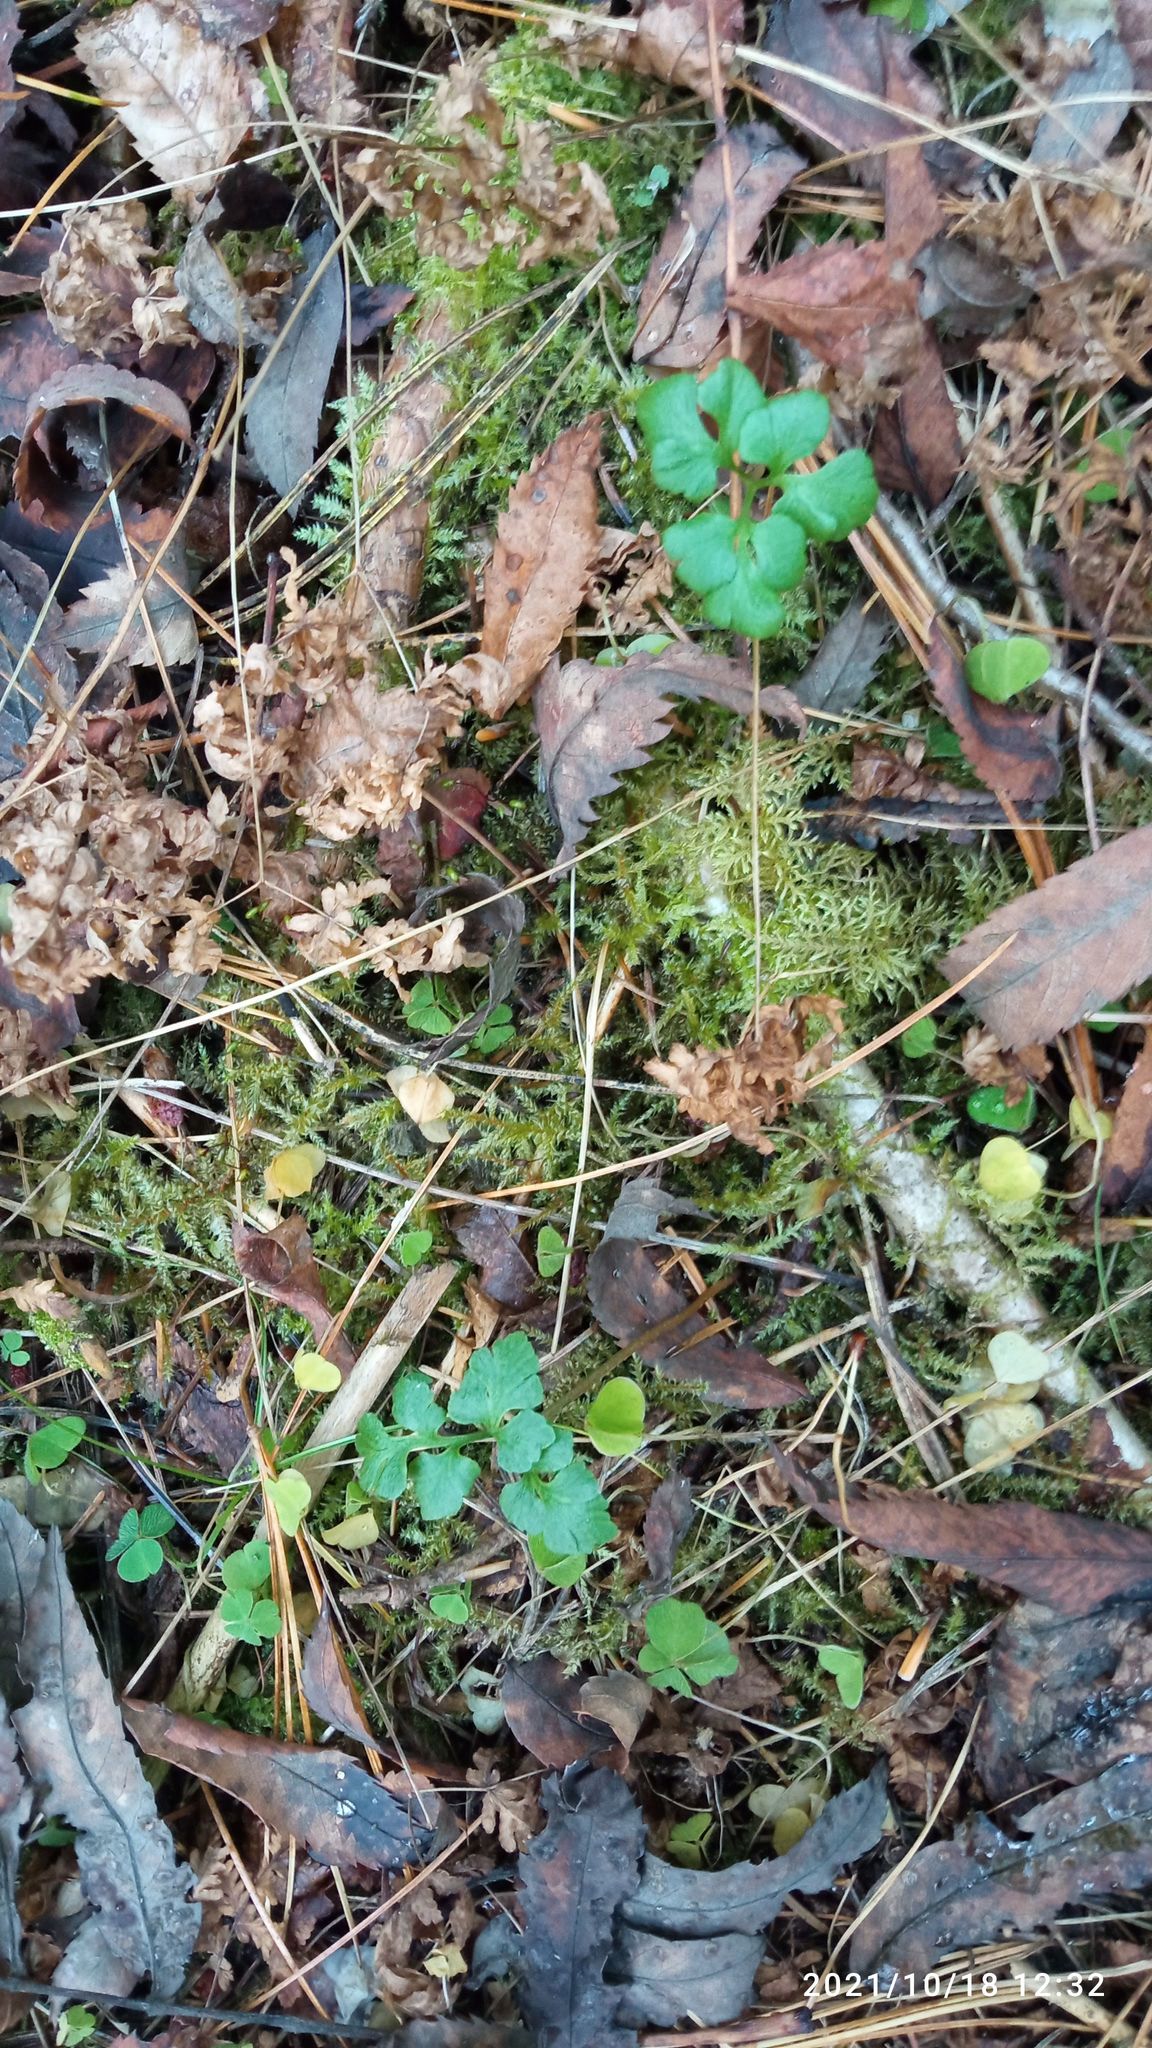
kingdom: Plantae
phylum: Tracheophyta
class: Polypodiopsida
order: Ophioglossales
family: Ophioglossaceae
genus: Sceptridium
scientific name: Sceptridium multifidum
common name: Leathery grape fern
